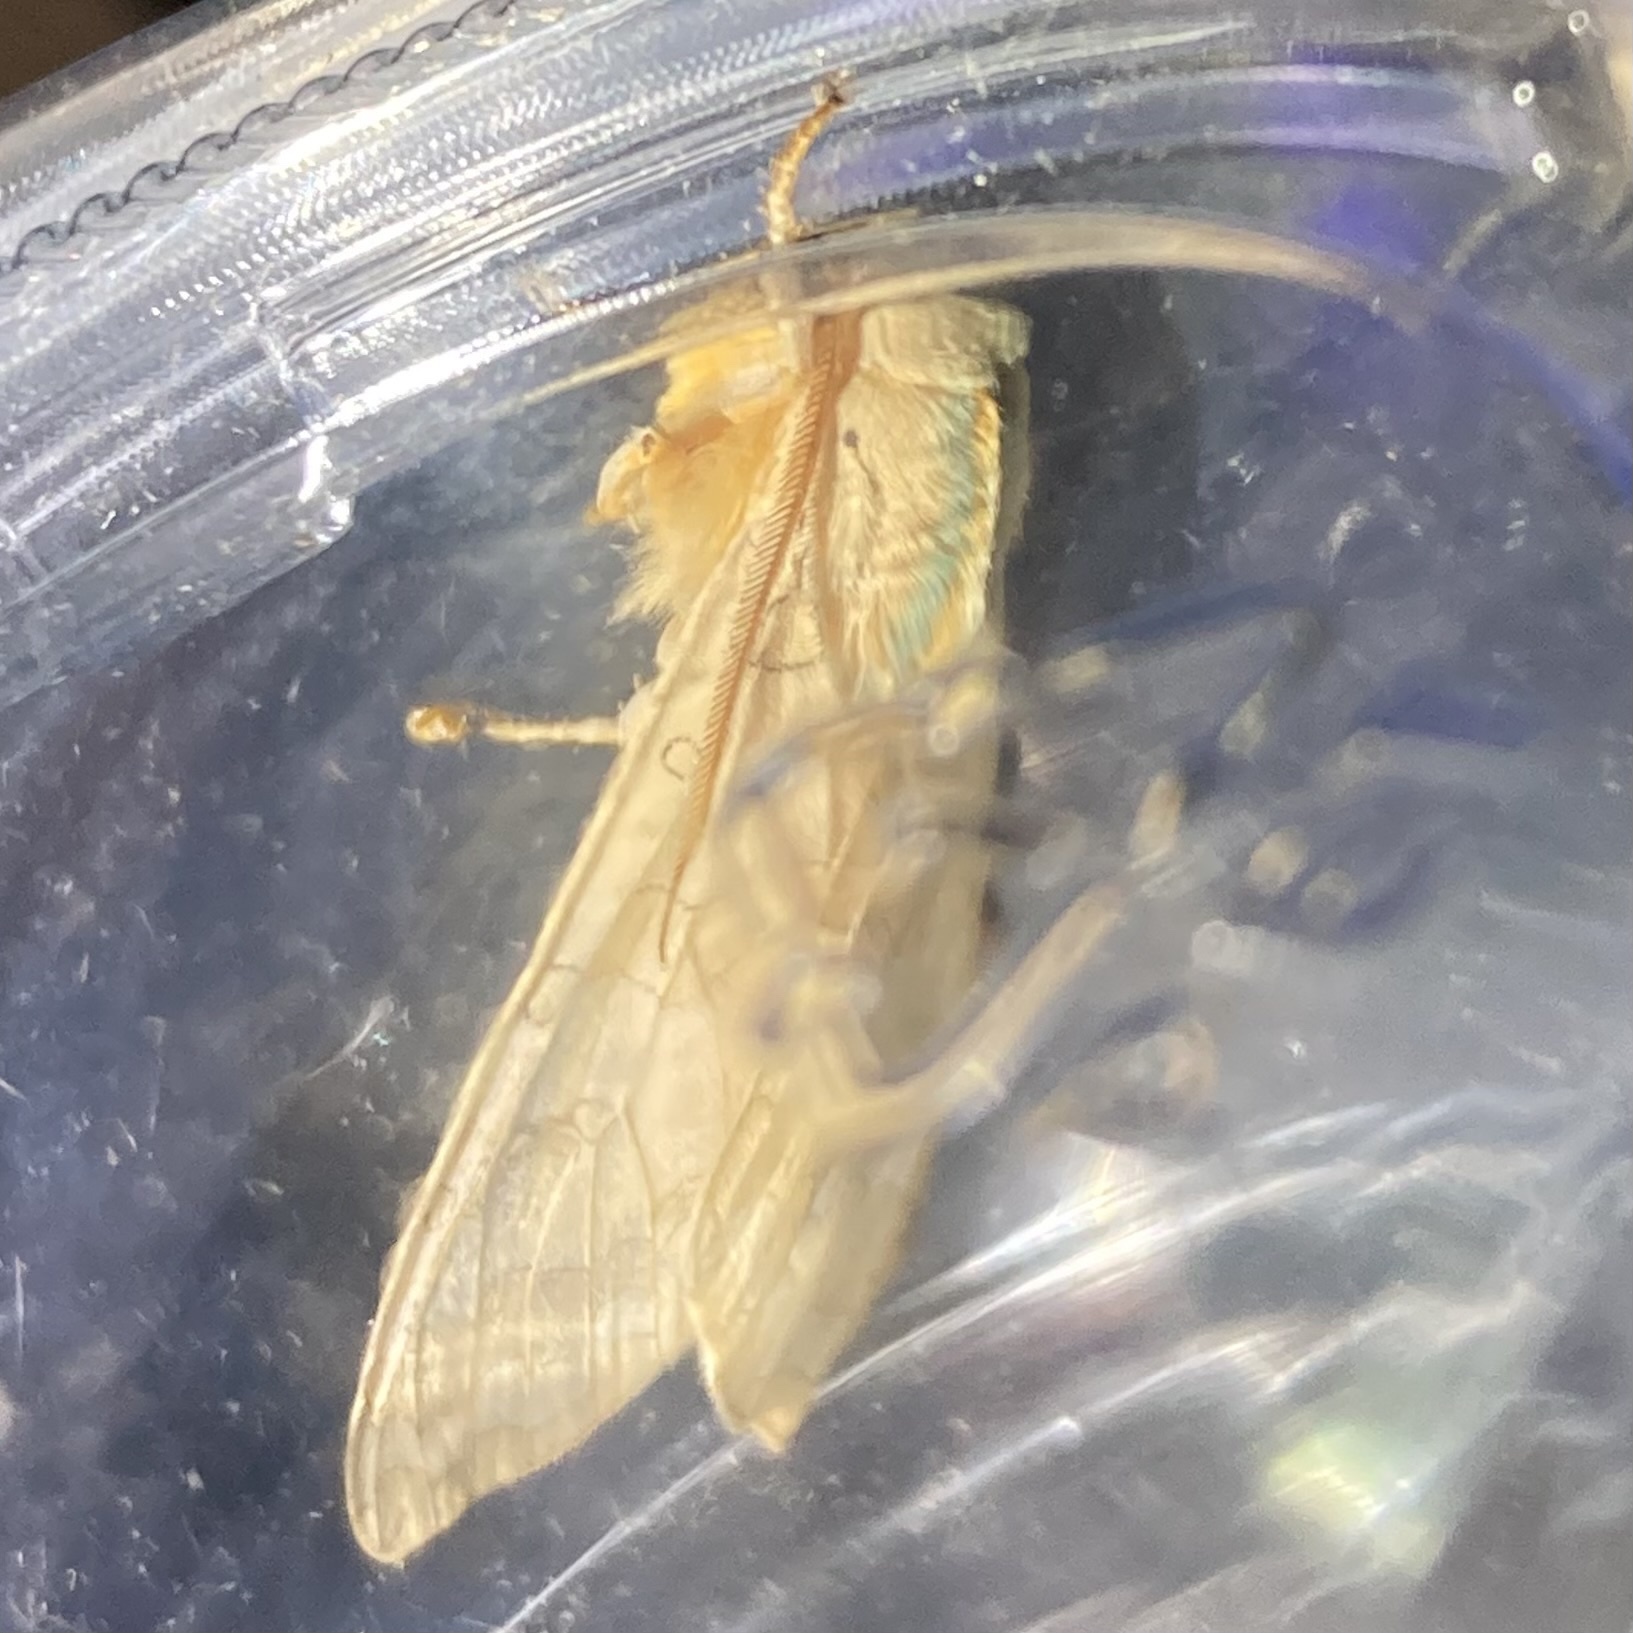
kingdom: Animalia
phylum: Arthropoda
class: Insecta
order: Lepidoptera
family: Erebidae
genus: Halysidota
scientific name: Halysidota tessellaris
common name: Banded tussock moth
